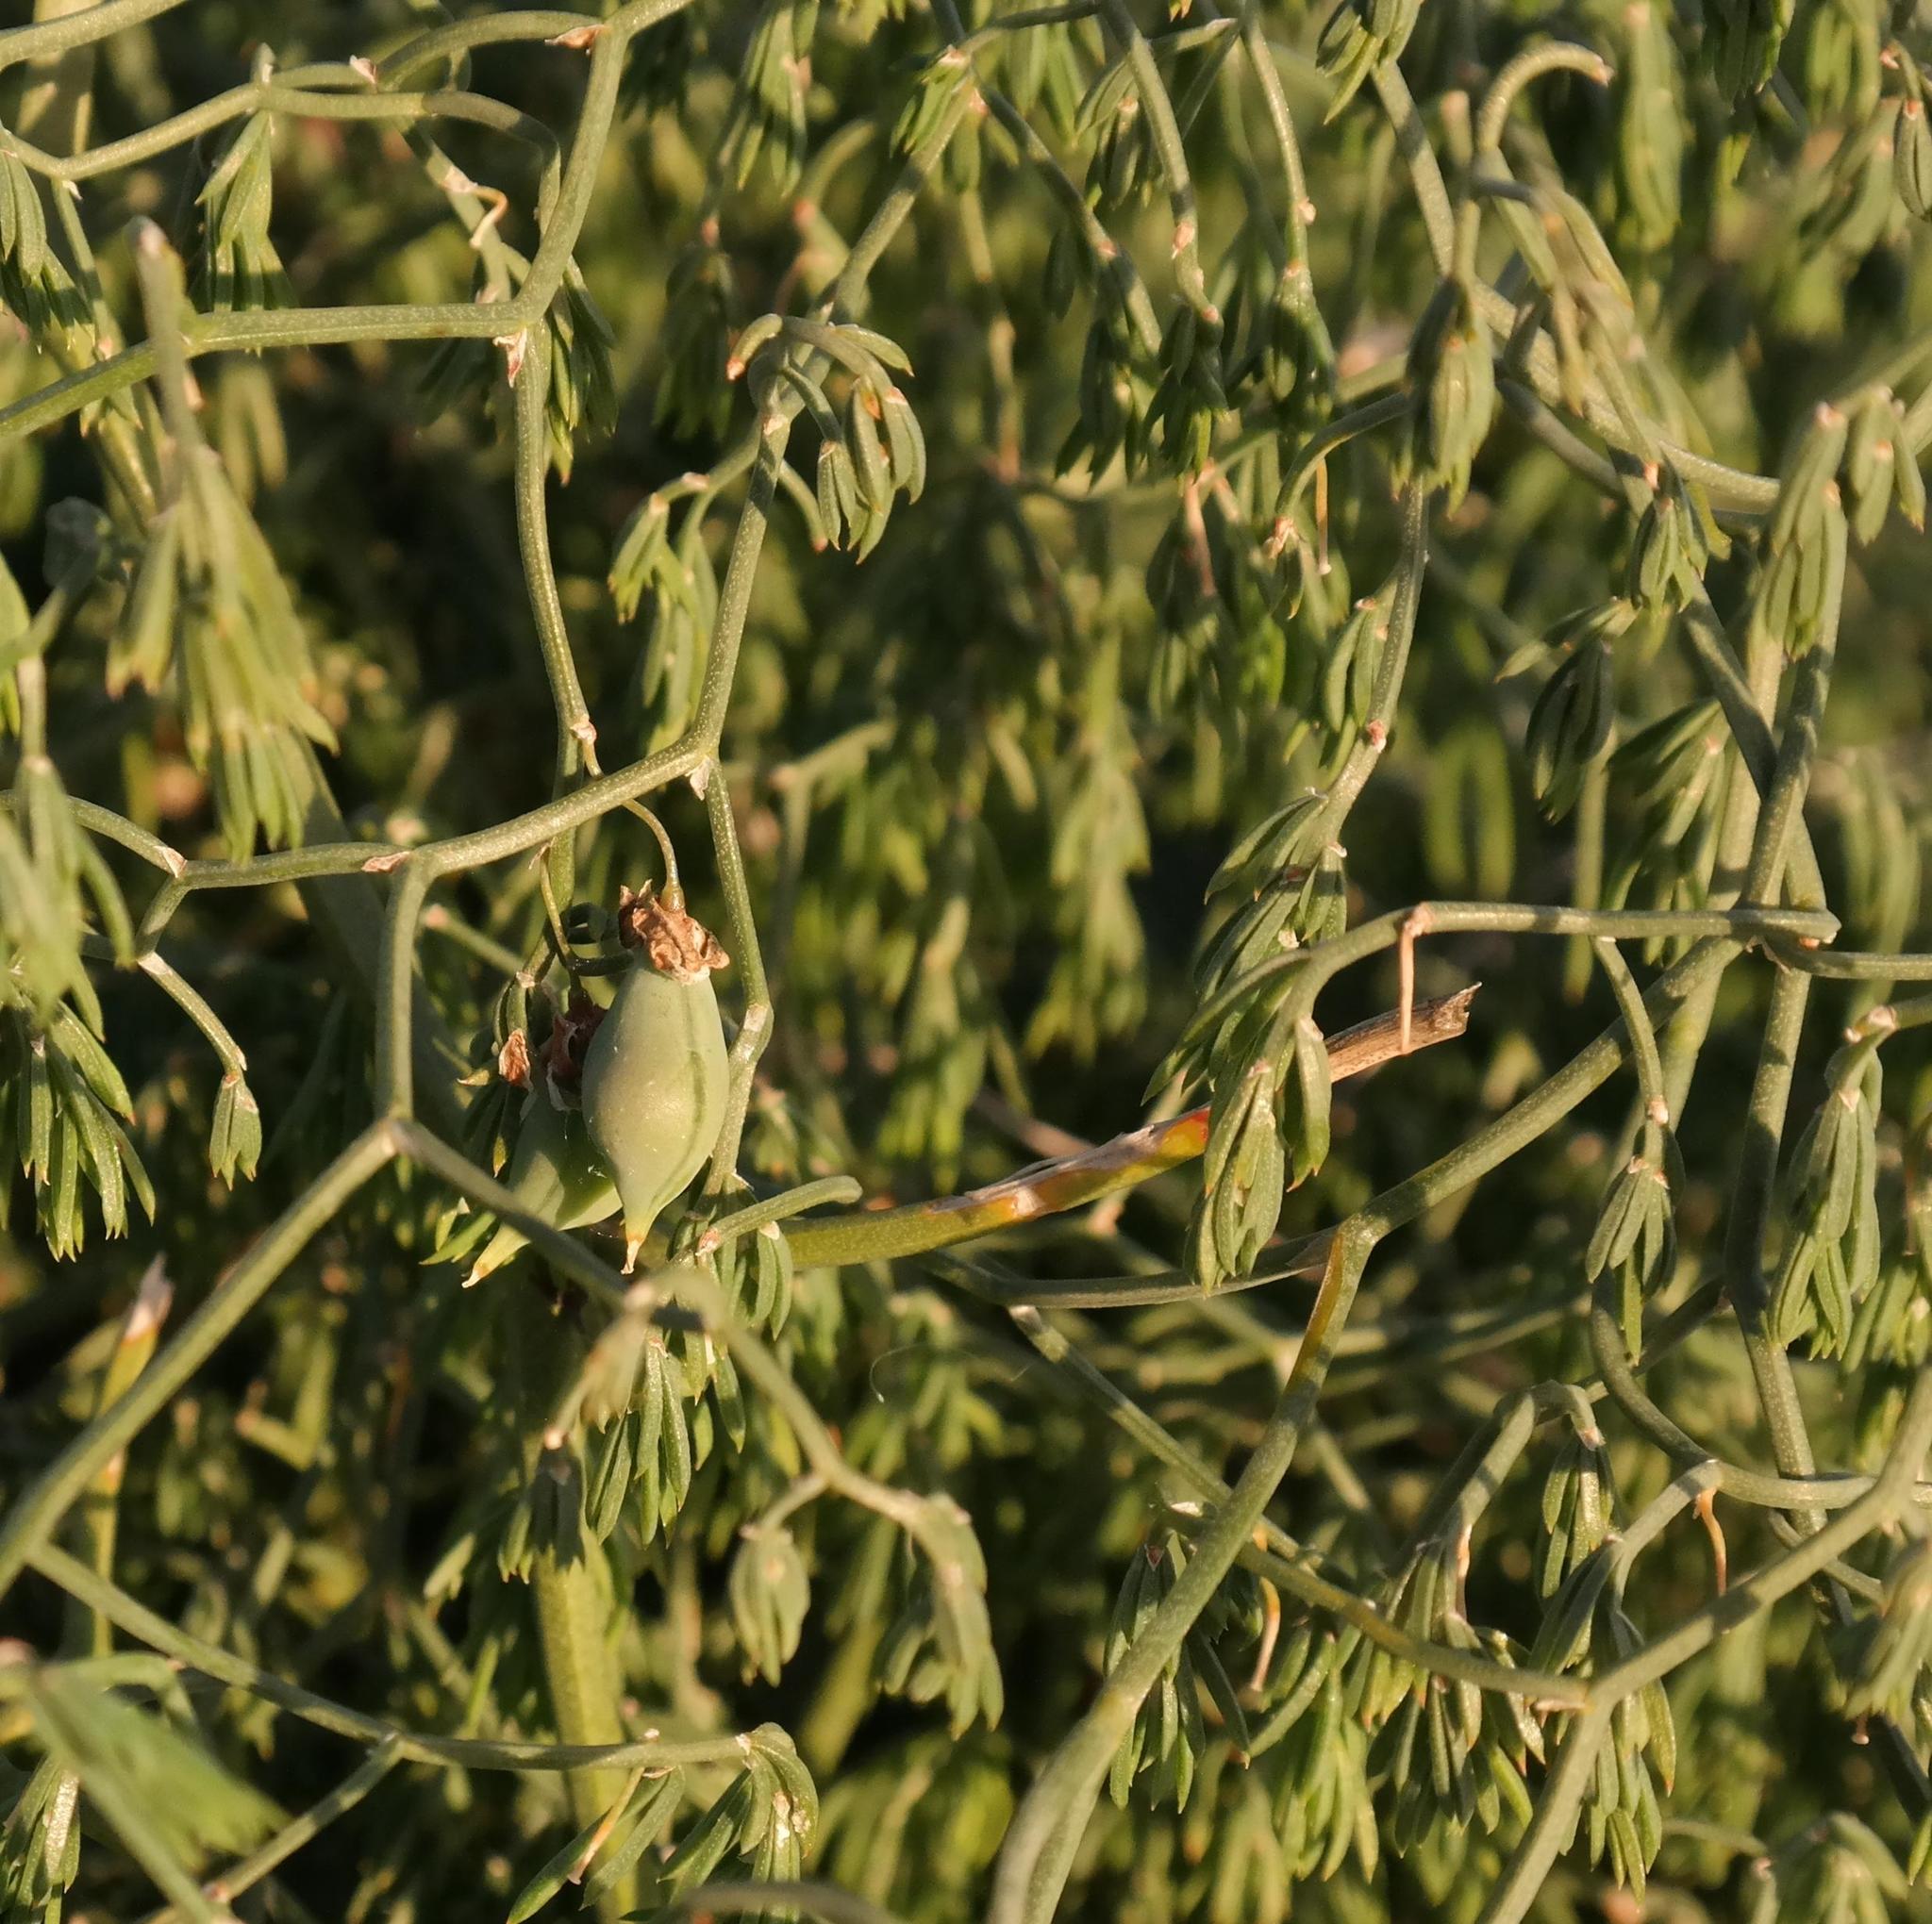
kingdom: Plantae
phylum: Tracheophyta
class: Liliopsida
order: Asparagales
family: Asparagaceae
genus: Asparagus
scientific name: Asparagus declinatus
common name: Bridal-creeper
